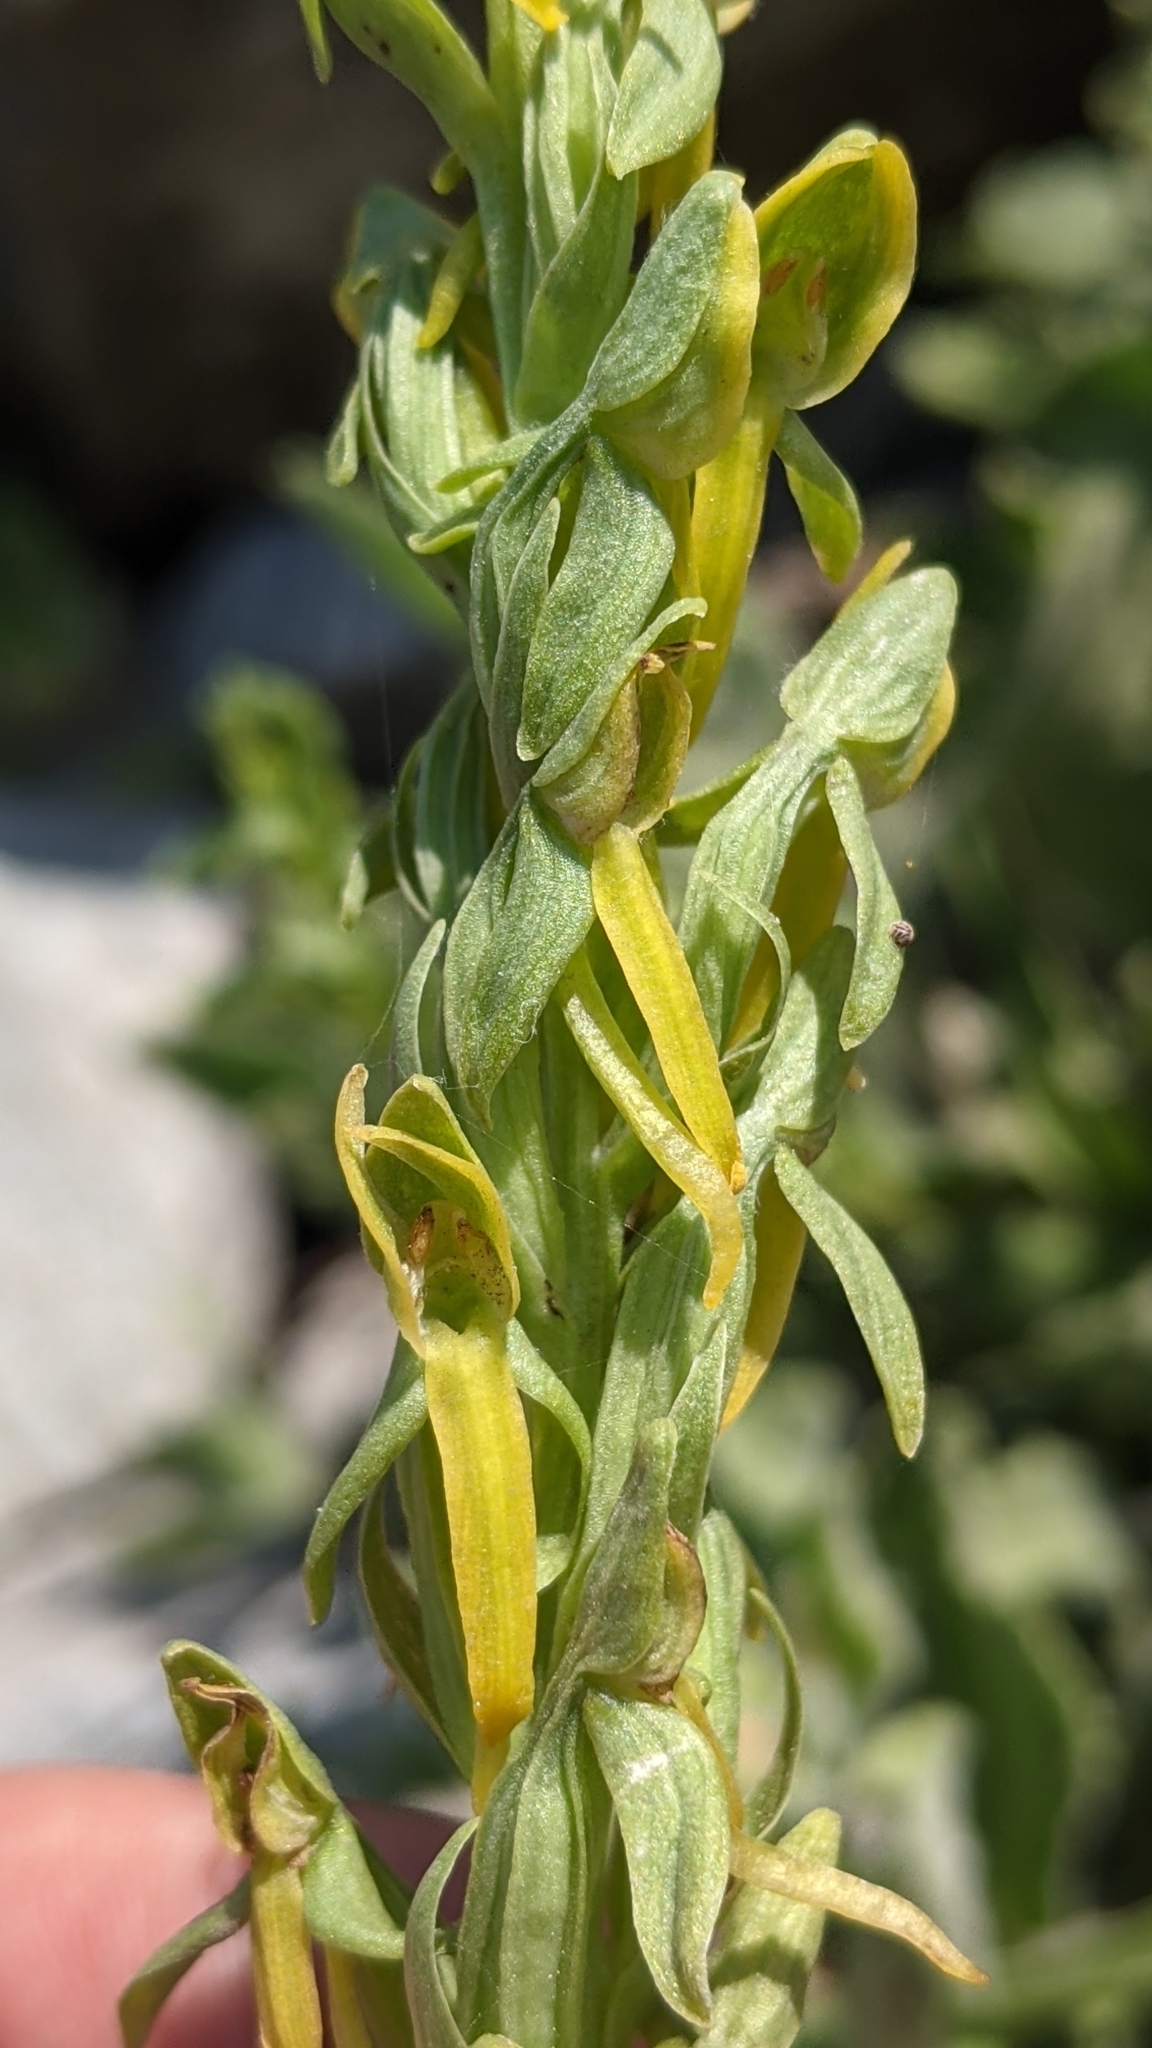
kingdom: Plantae
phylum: Tracheophyta
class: Liliopsida
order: Asparagales
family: Orchidaceae
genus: Platanthera
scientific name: Platanthera sparsiflora
